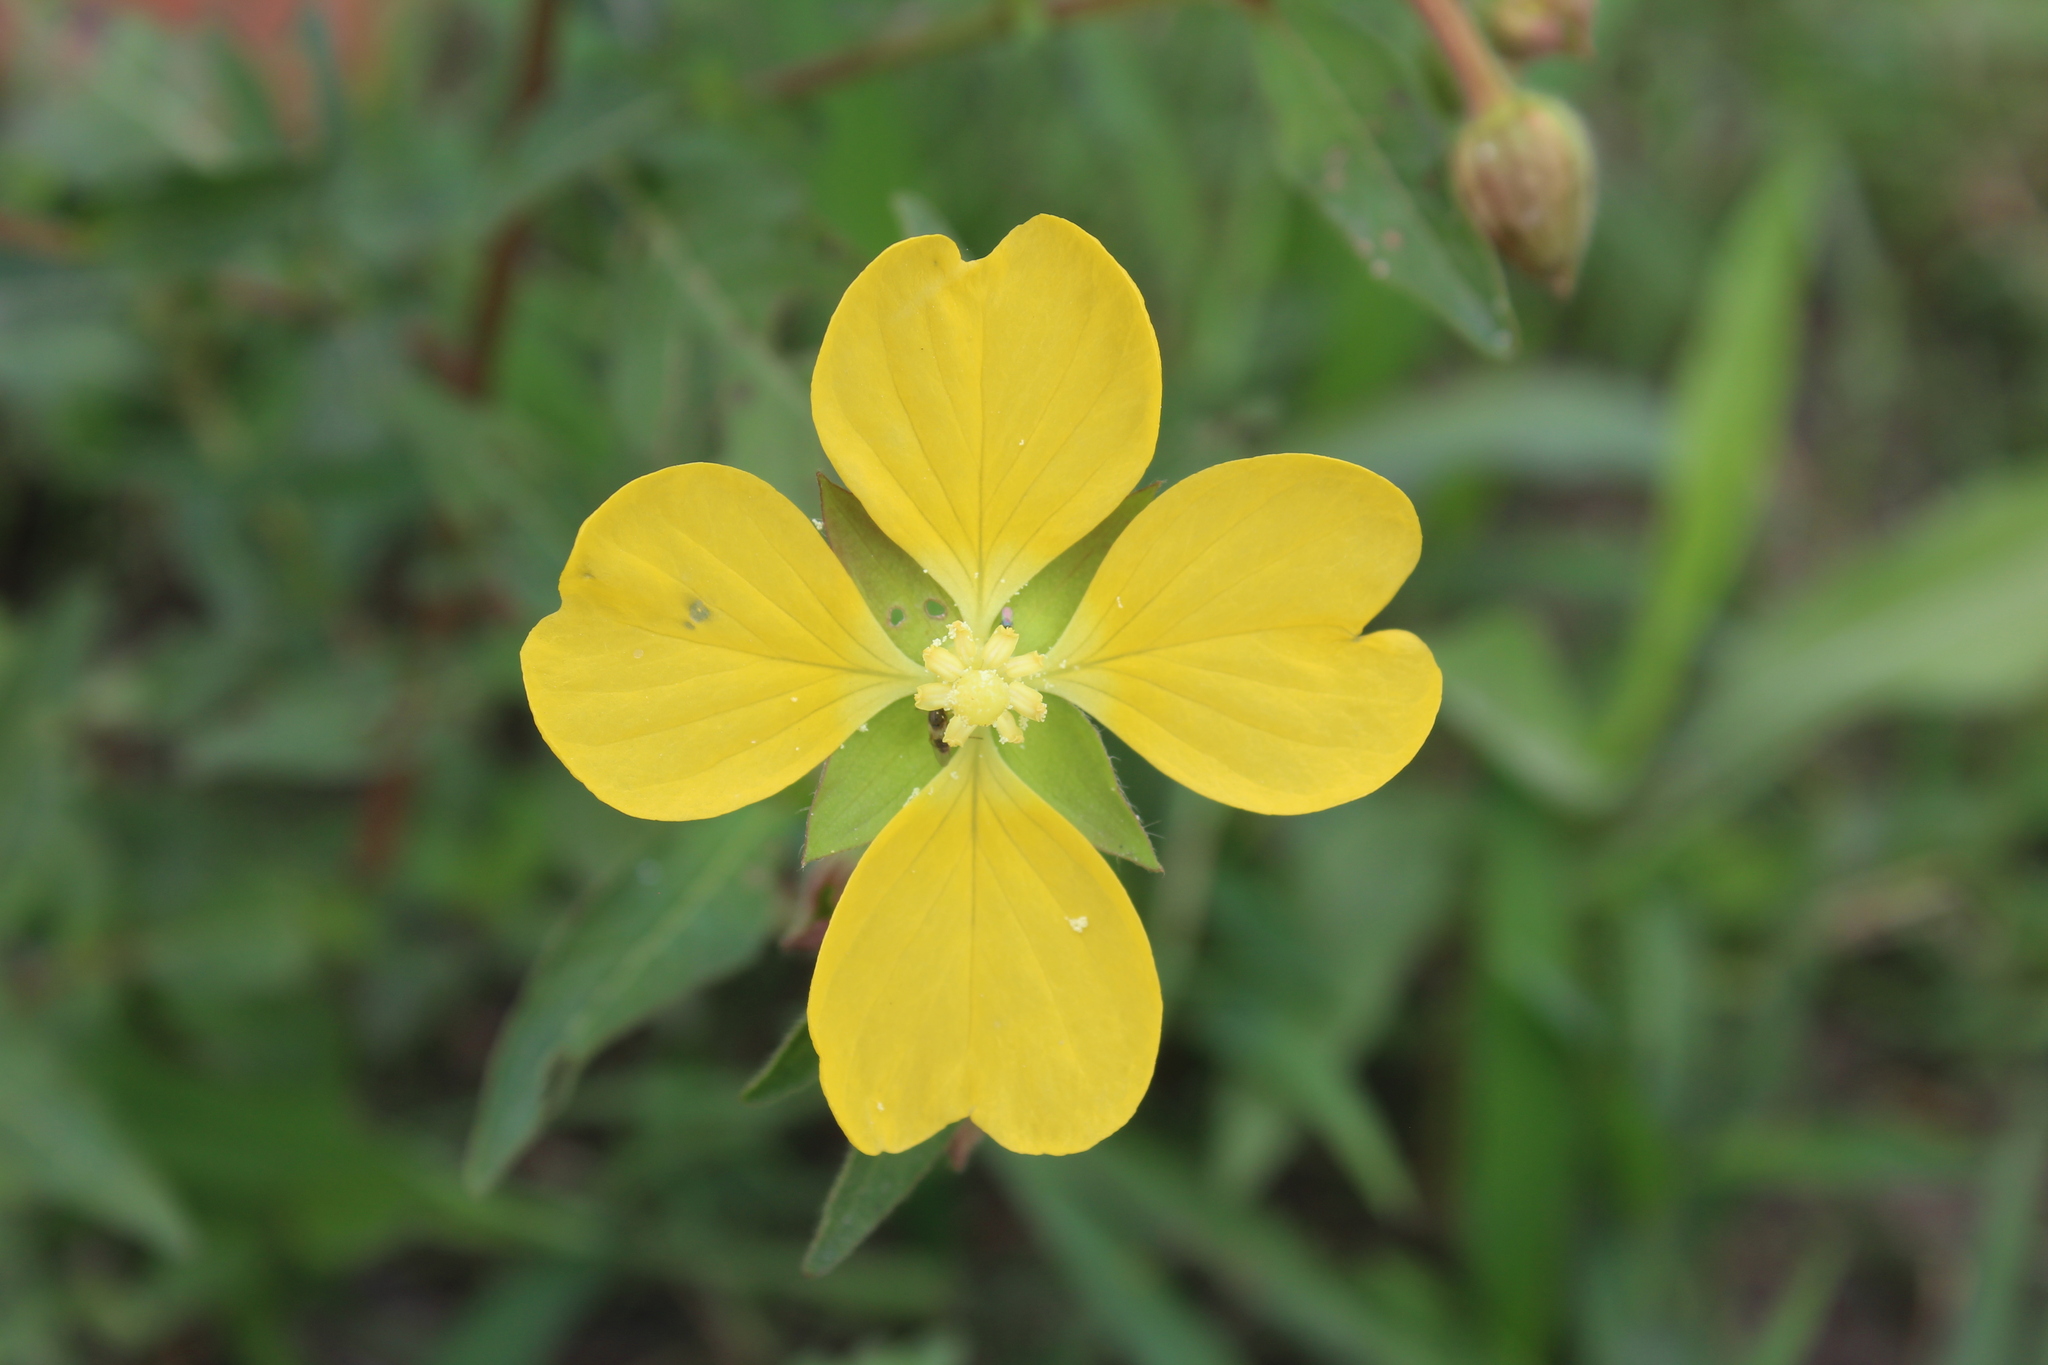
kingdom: Plantae
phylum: Tracheophyta
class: Magnoliopsida
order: Myrtales
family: Onagraceae
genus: Ludwigia
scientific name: Ludwigia octovalvis
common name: Water-primrose
